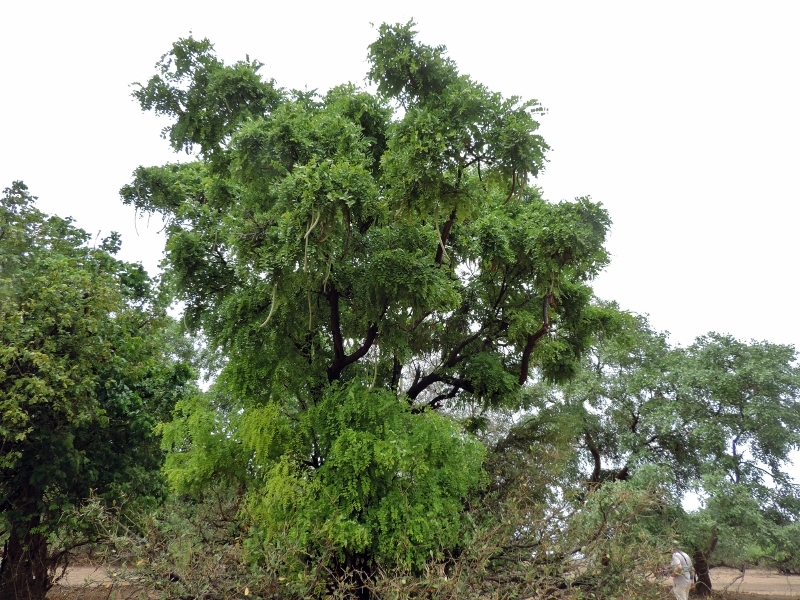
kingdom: Plantae
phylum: Tracheophyta
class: Magnoliopsida
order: Fabales
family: Fabaceae
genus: Cassia
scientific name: Cassia abbreviata
